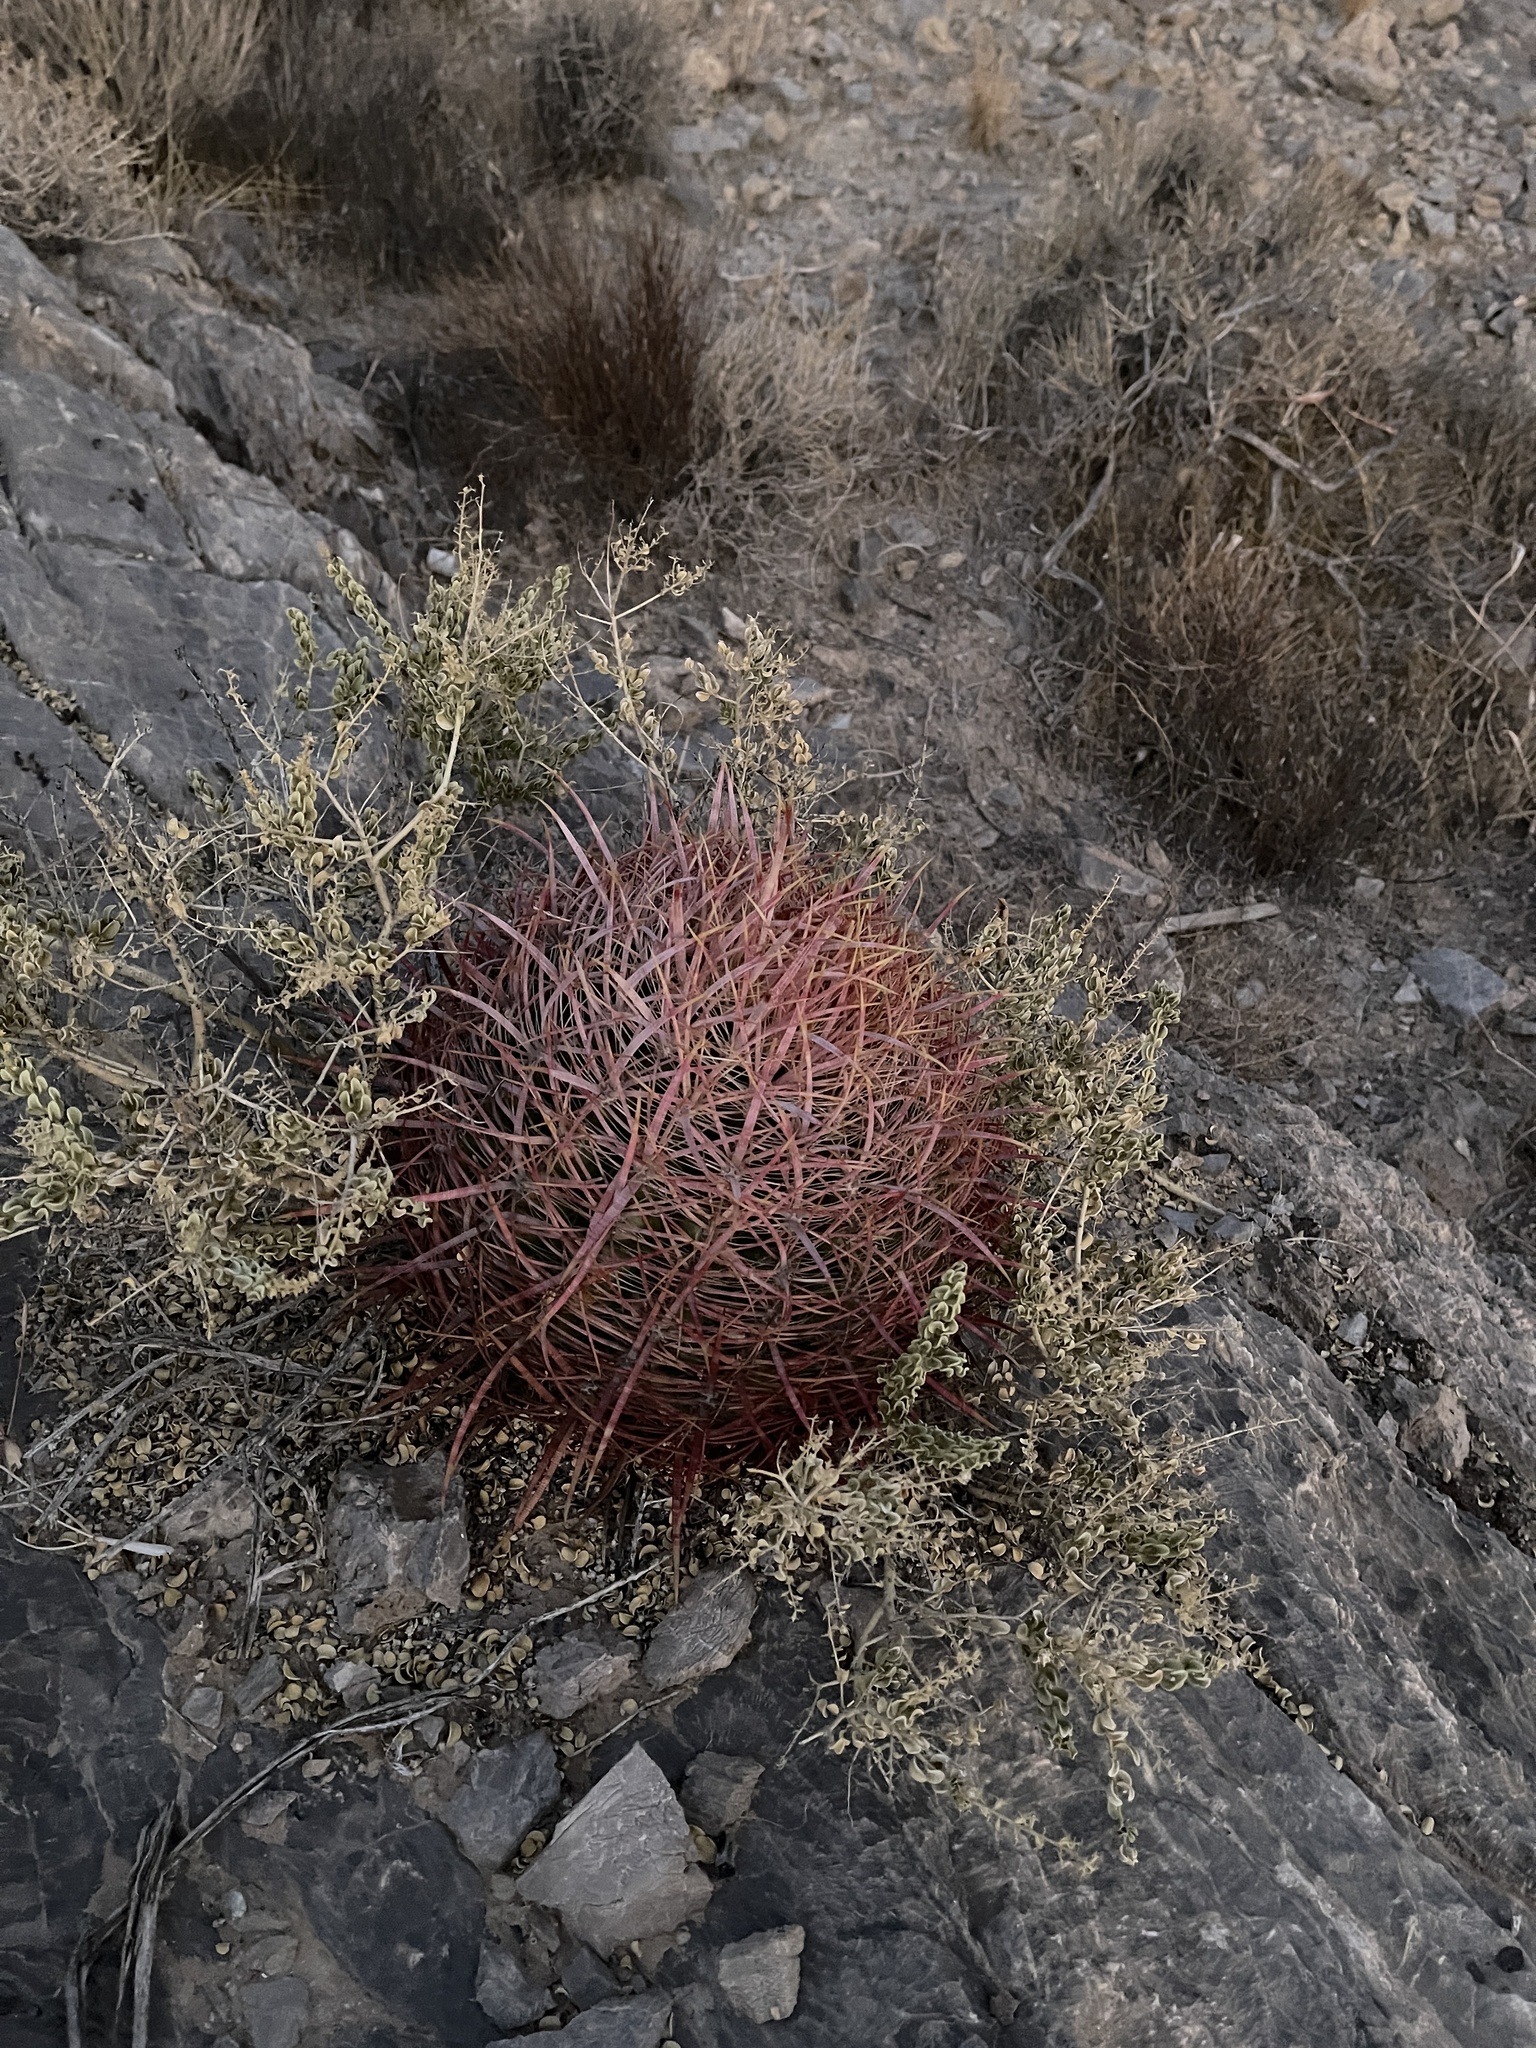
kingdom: Plantae
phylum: Tracheophyta
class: Magnoliopsida
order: Caryophyllales
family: Cactaceae
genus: Ferocactus
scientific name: Ferocactus cylindraceus
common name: California barrel cactus
